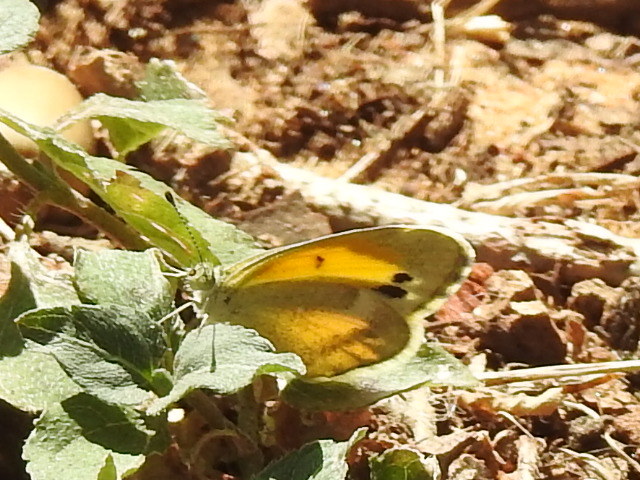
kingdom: Animalia
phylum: Arthropoda
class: Insecta
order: Lepidoptera
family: Pieridae
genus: Nathalis
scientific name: Nathalis iole
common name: Dainty sulphur
